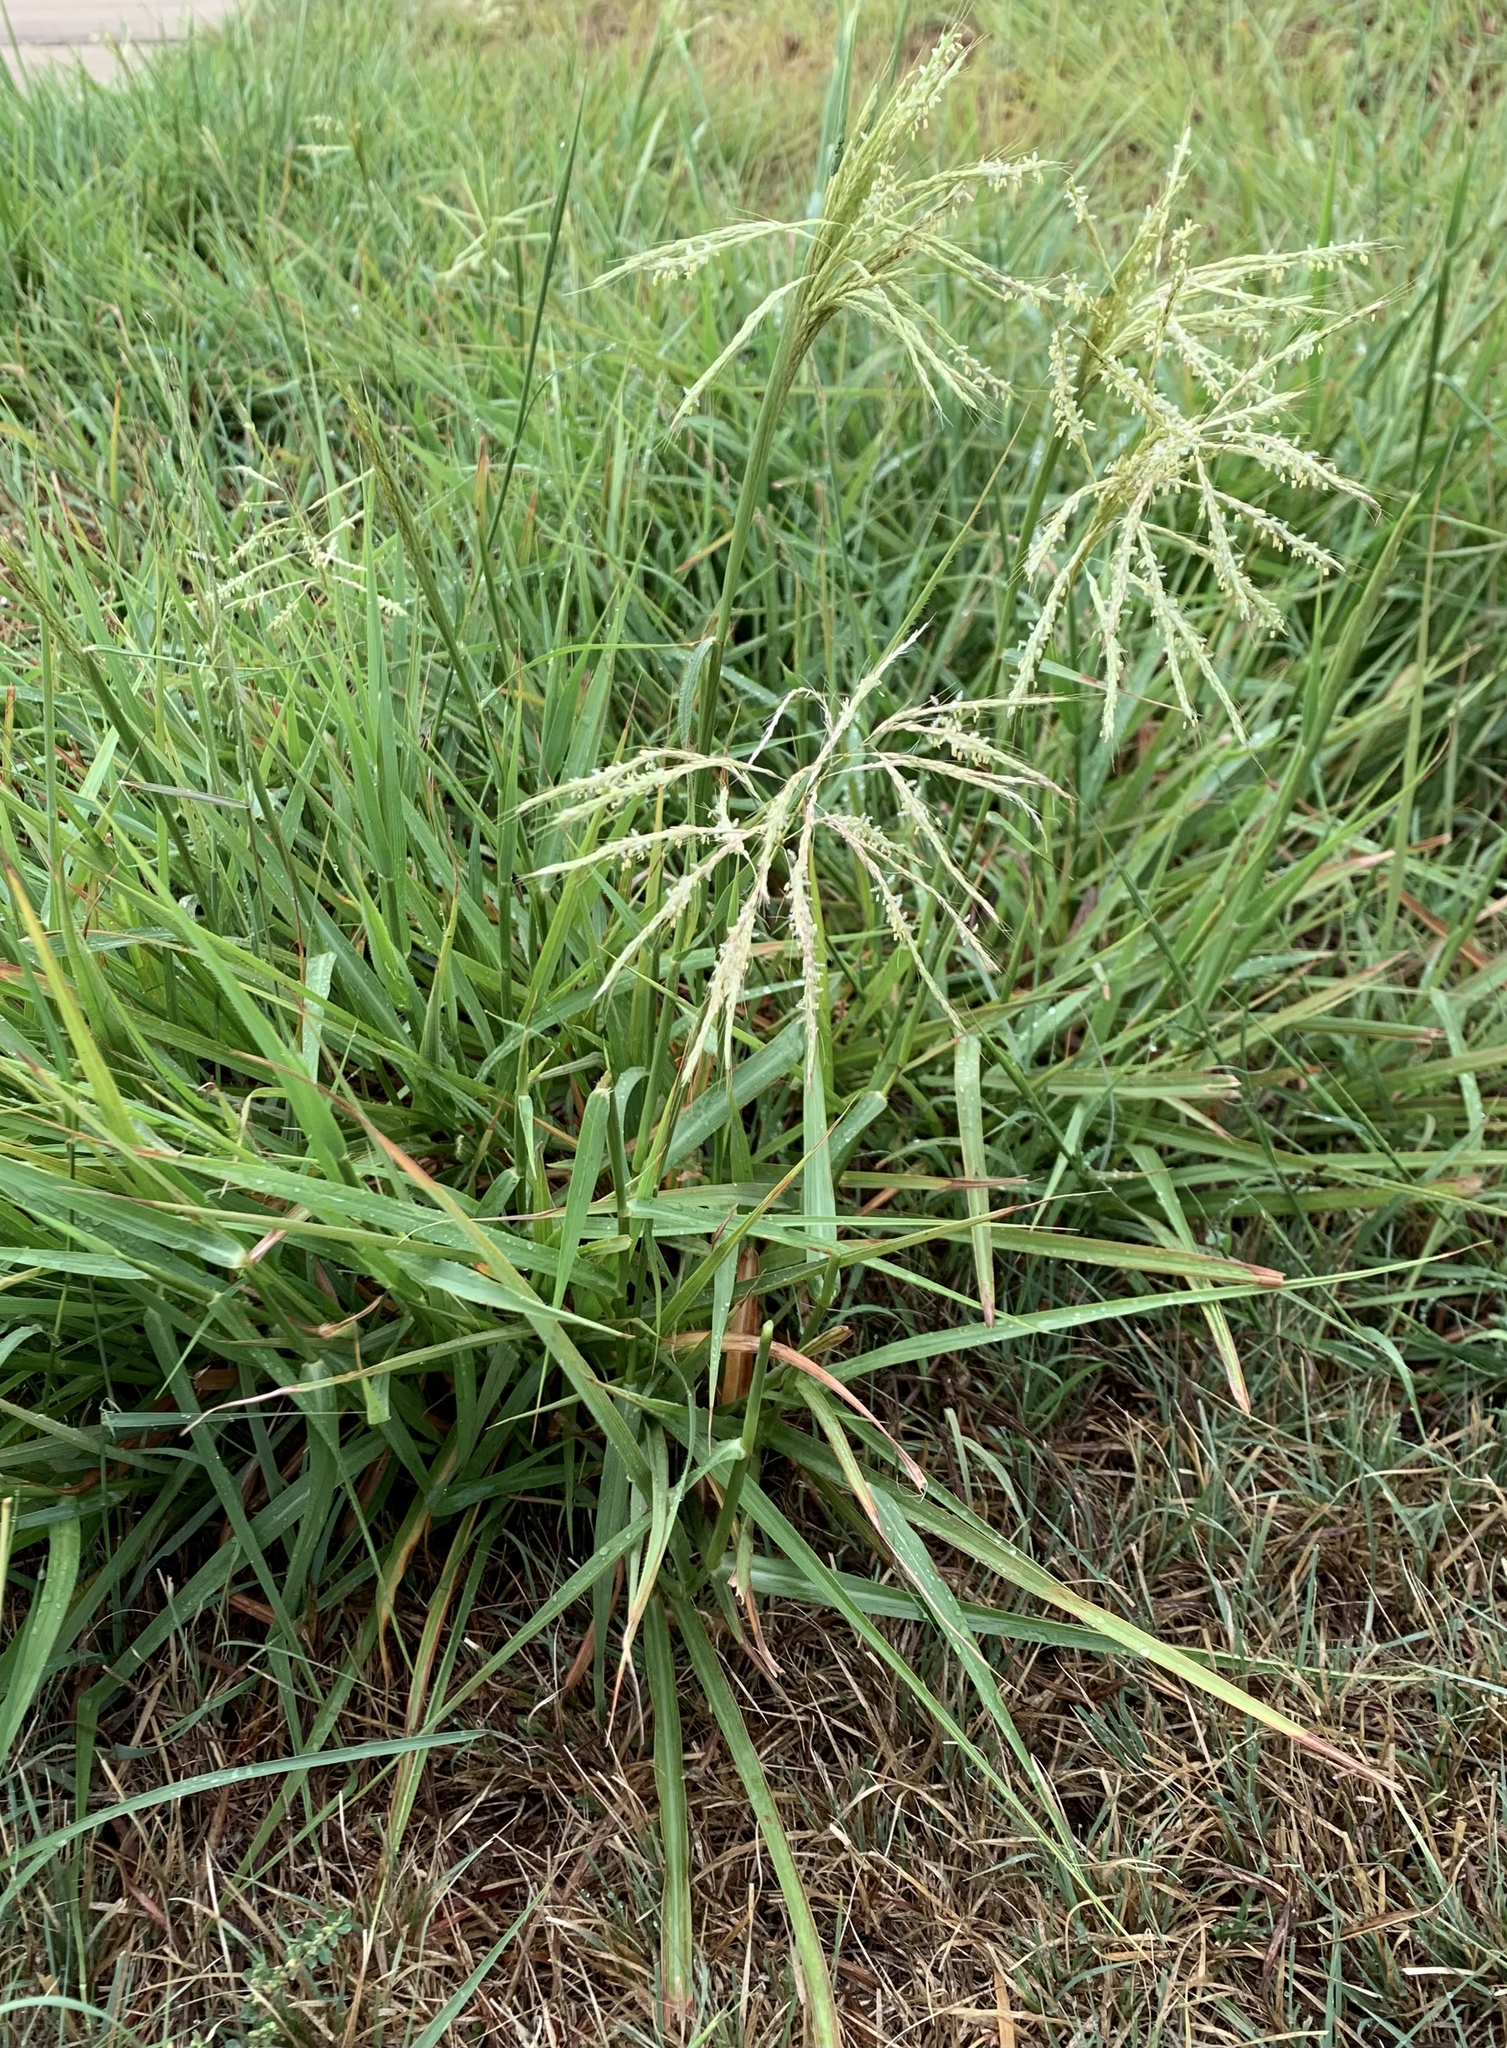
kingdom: Plantae
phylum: Tracheophyta
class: Liliopsida
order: Poales
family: Poaceae
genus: Bothriochloa
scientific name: Bothriochloa bladhii
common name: Caucasian bluestem
